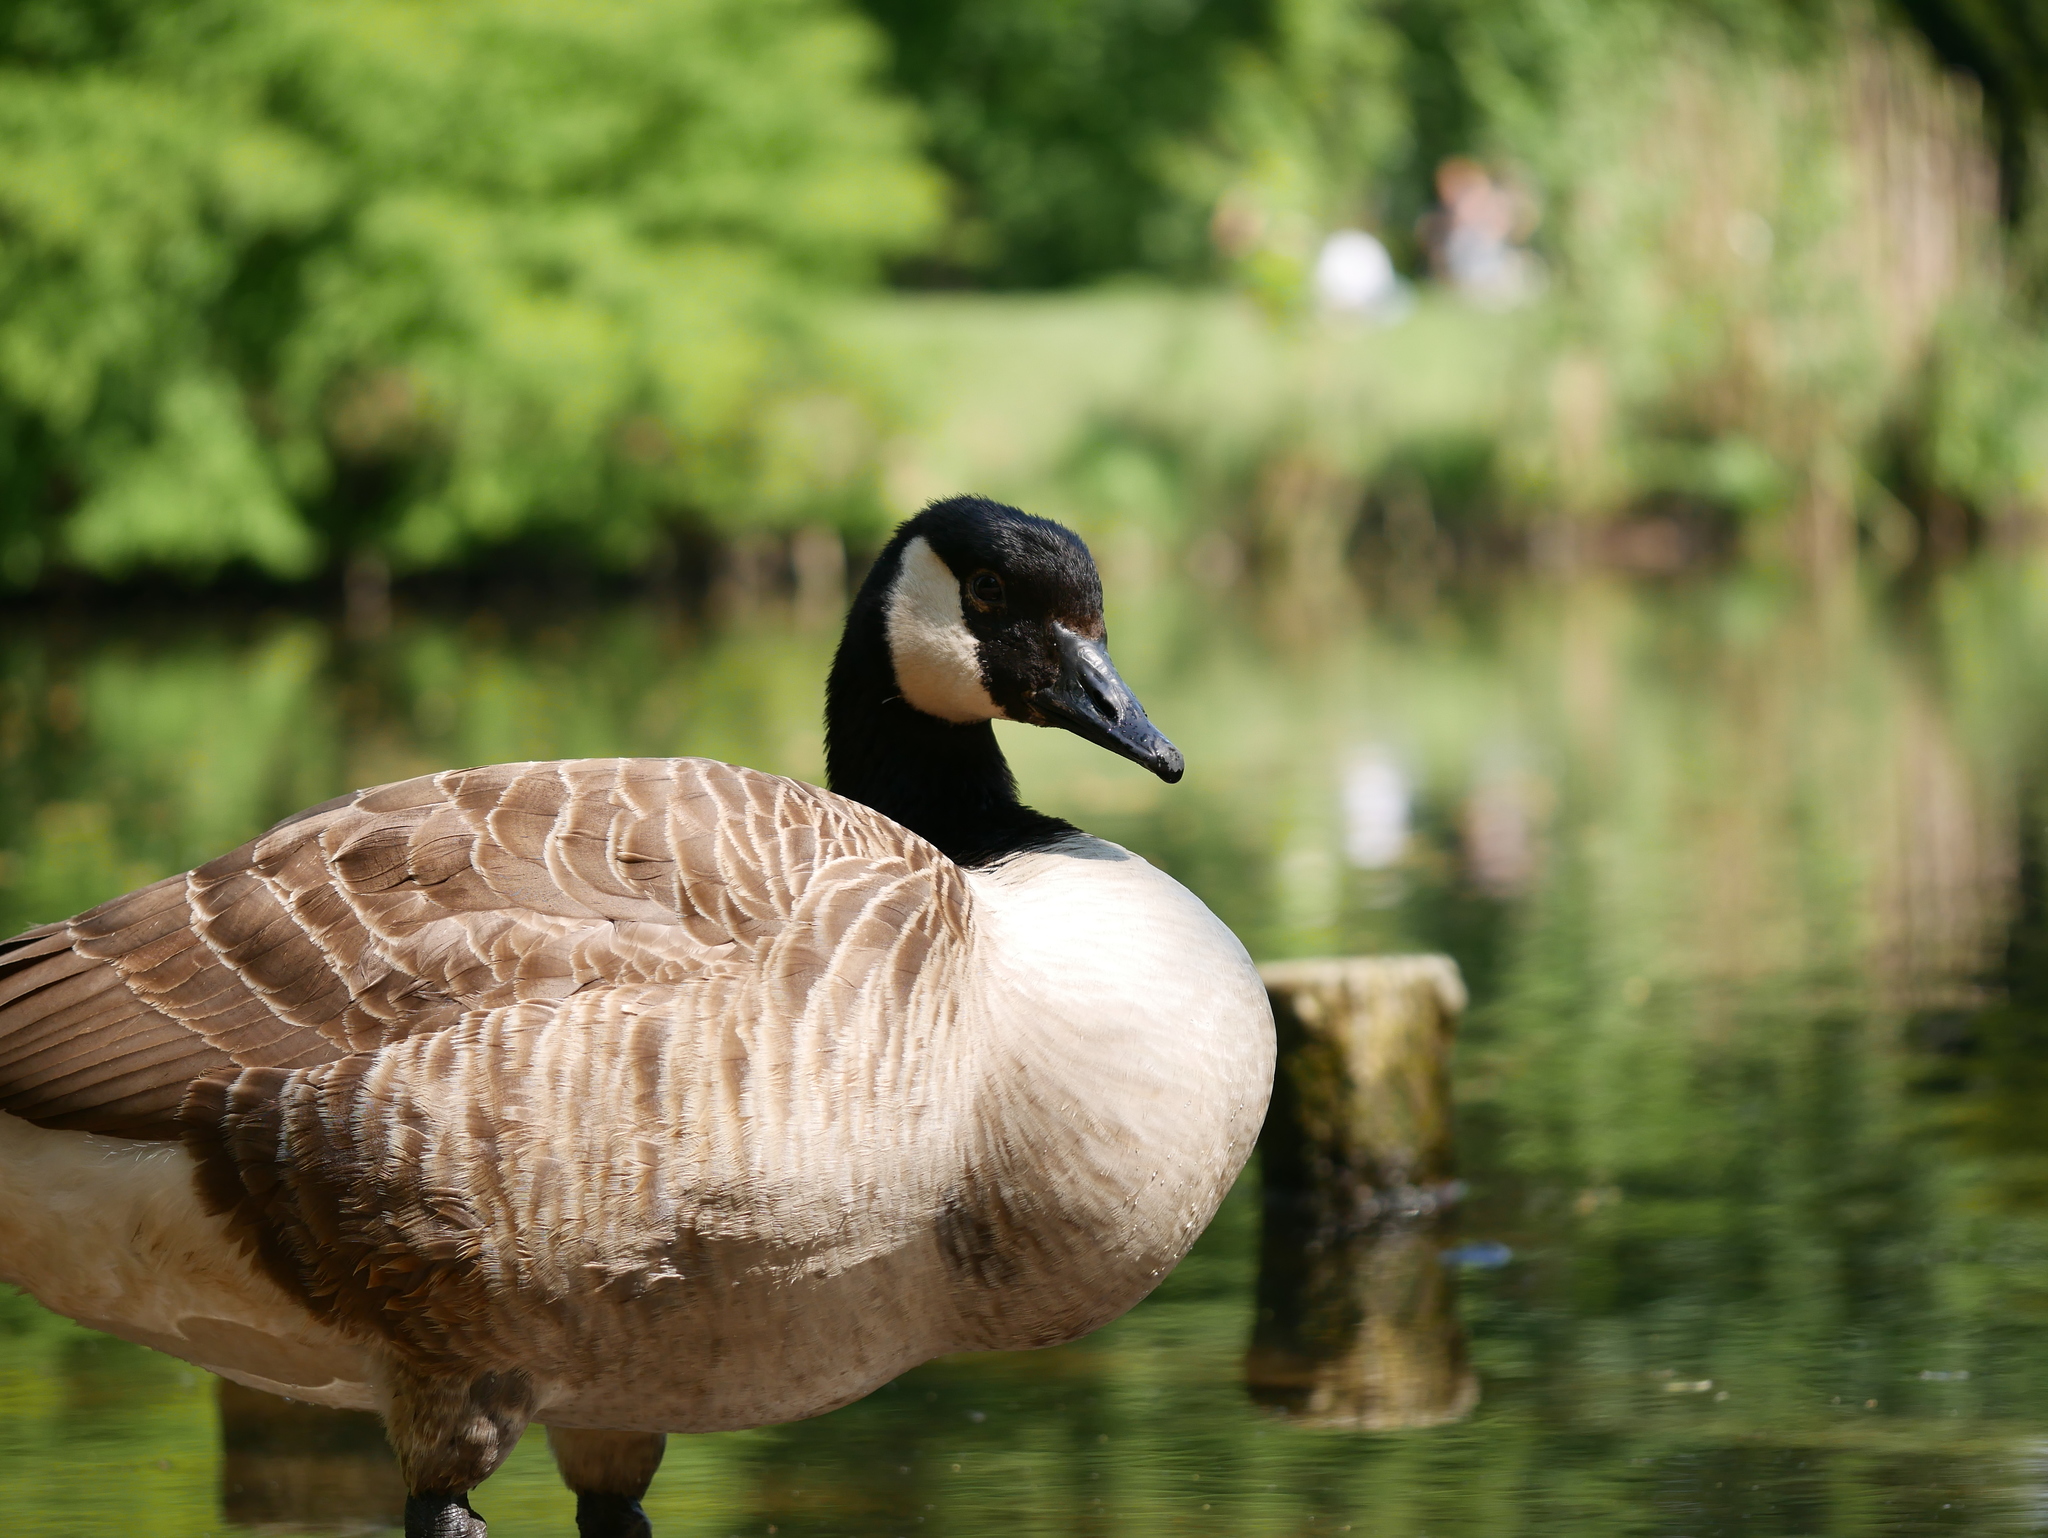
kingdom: Animalia
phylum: Chordata
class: Aves
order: Anseriformes
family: Anatidae
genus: Branta
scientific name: Branta canadensis
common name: Canada goose
